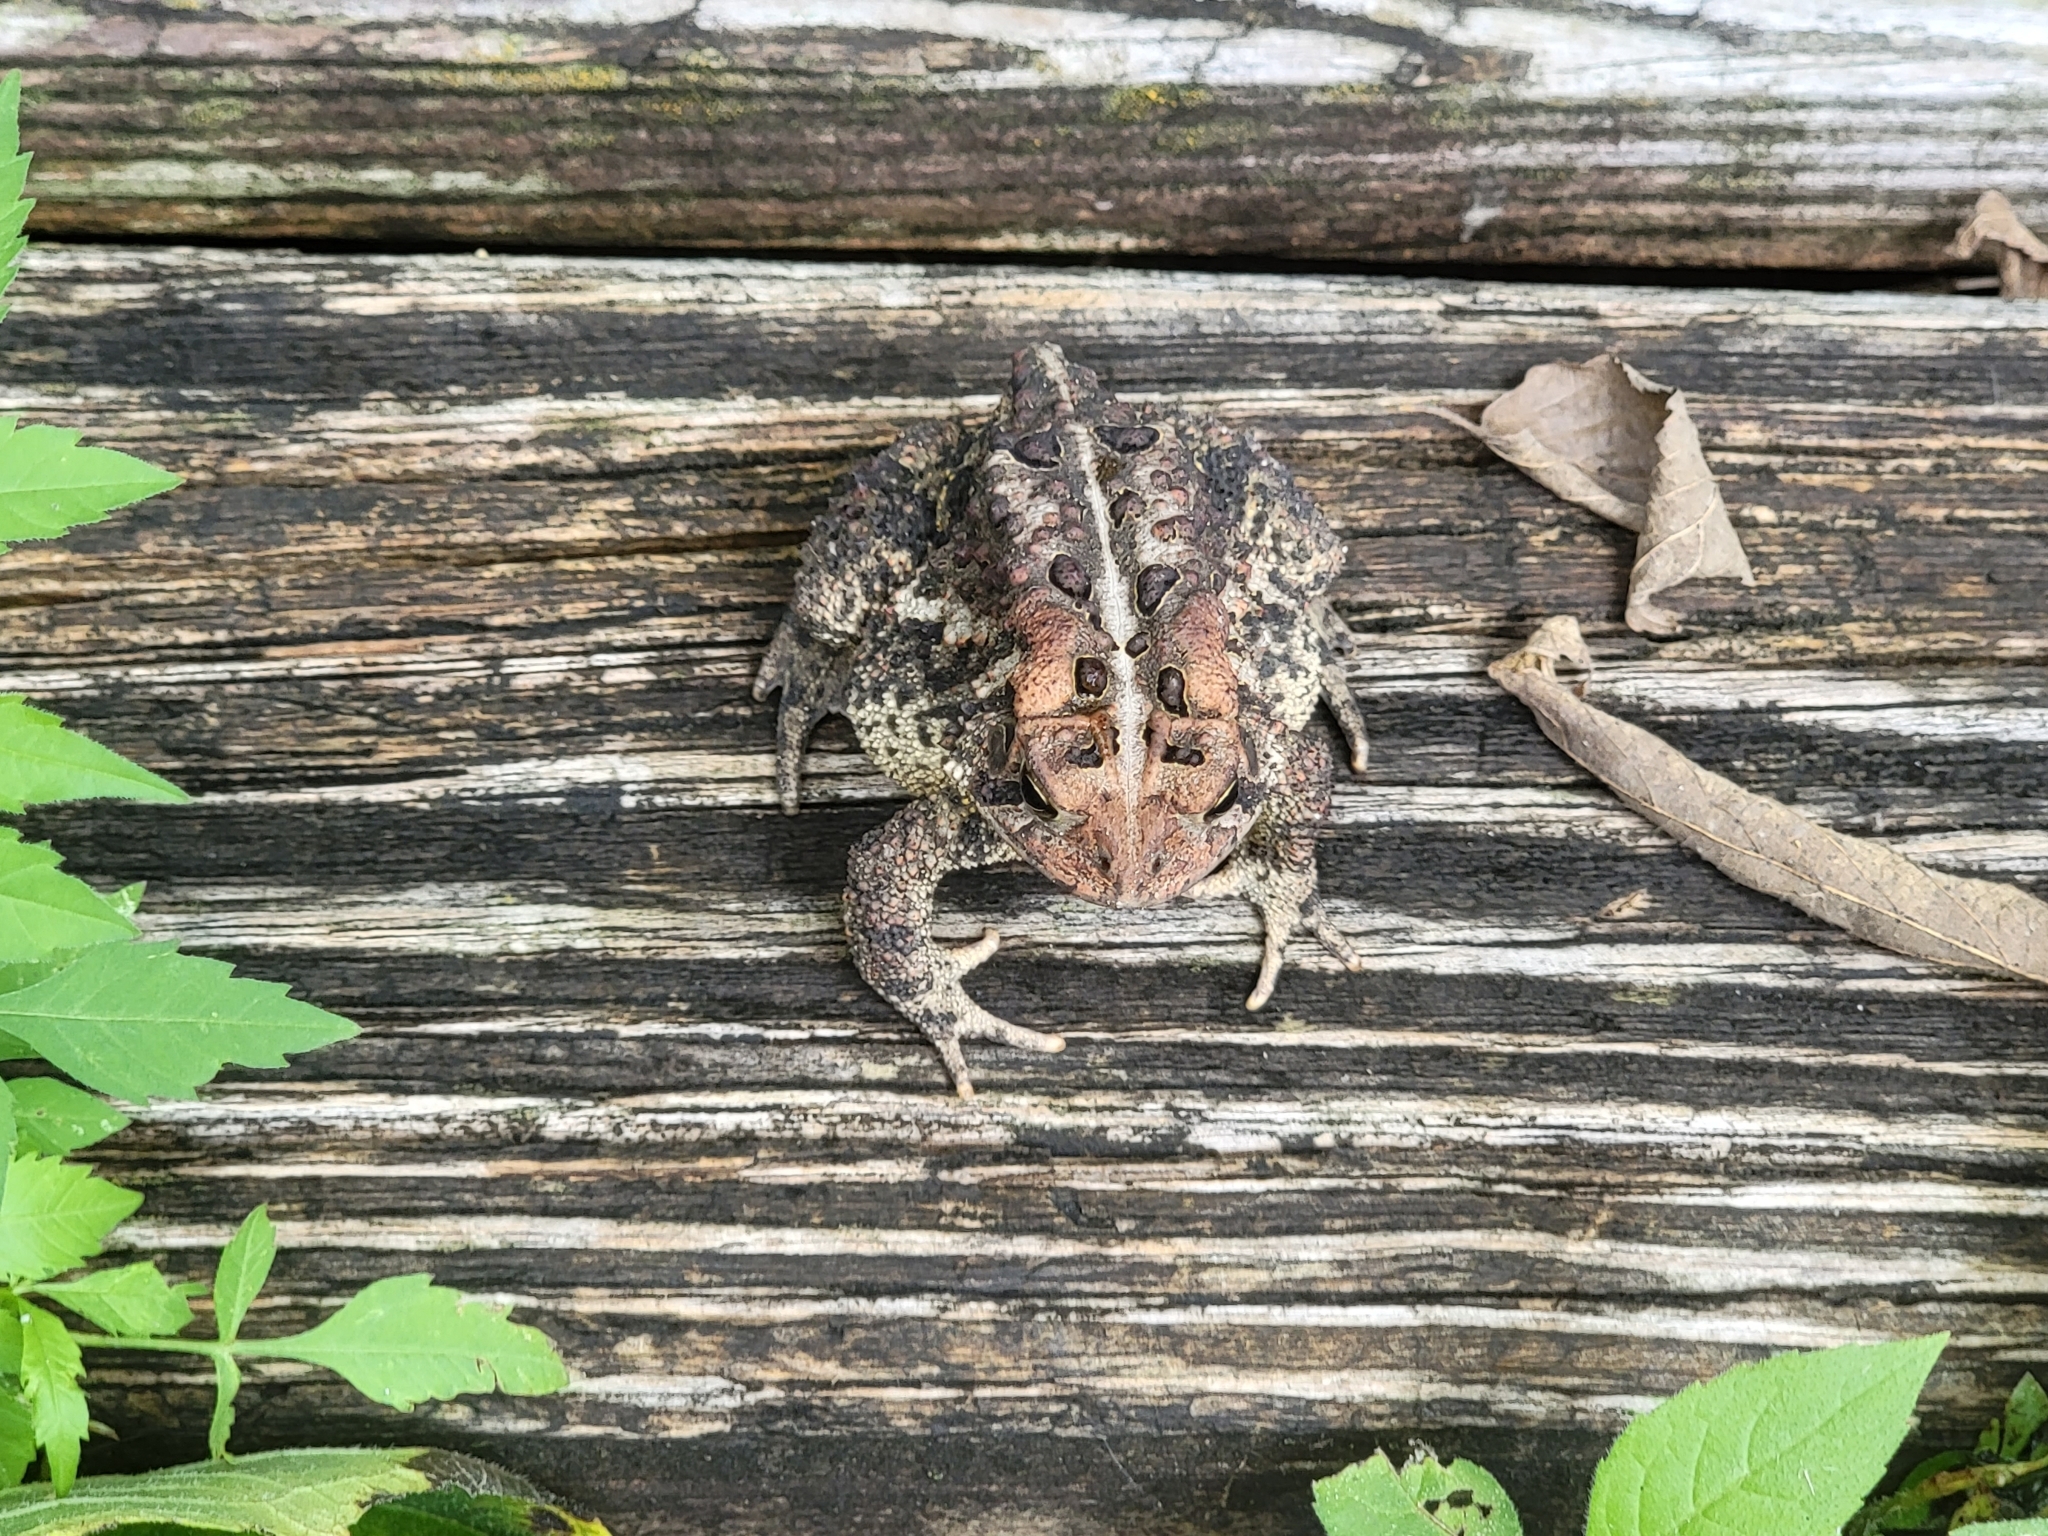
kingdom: Animalia
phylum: Chordata
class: Amphibia
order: Anura
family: Bufonidae
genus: Anaxyrus
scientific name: Anaxyrus americanus
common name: American toad
